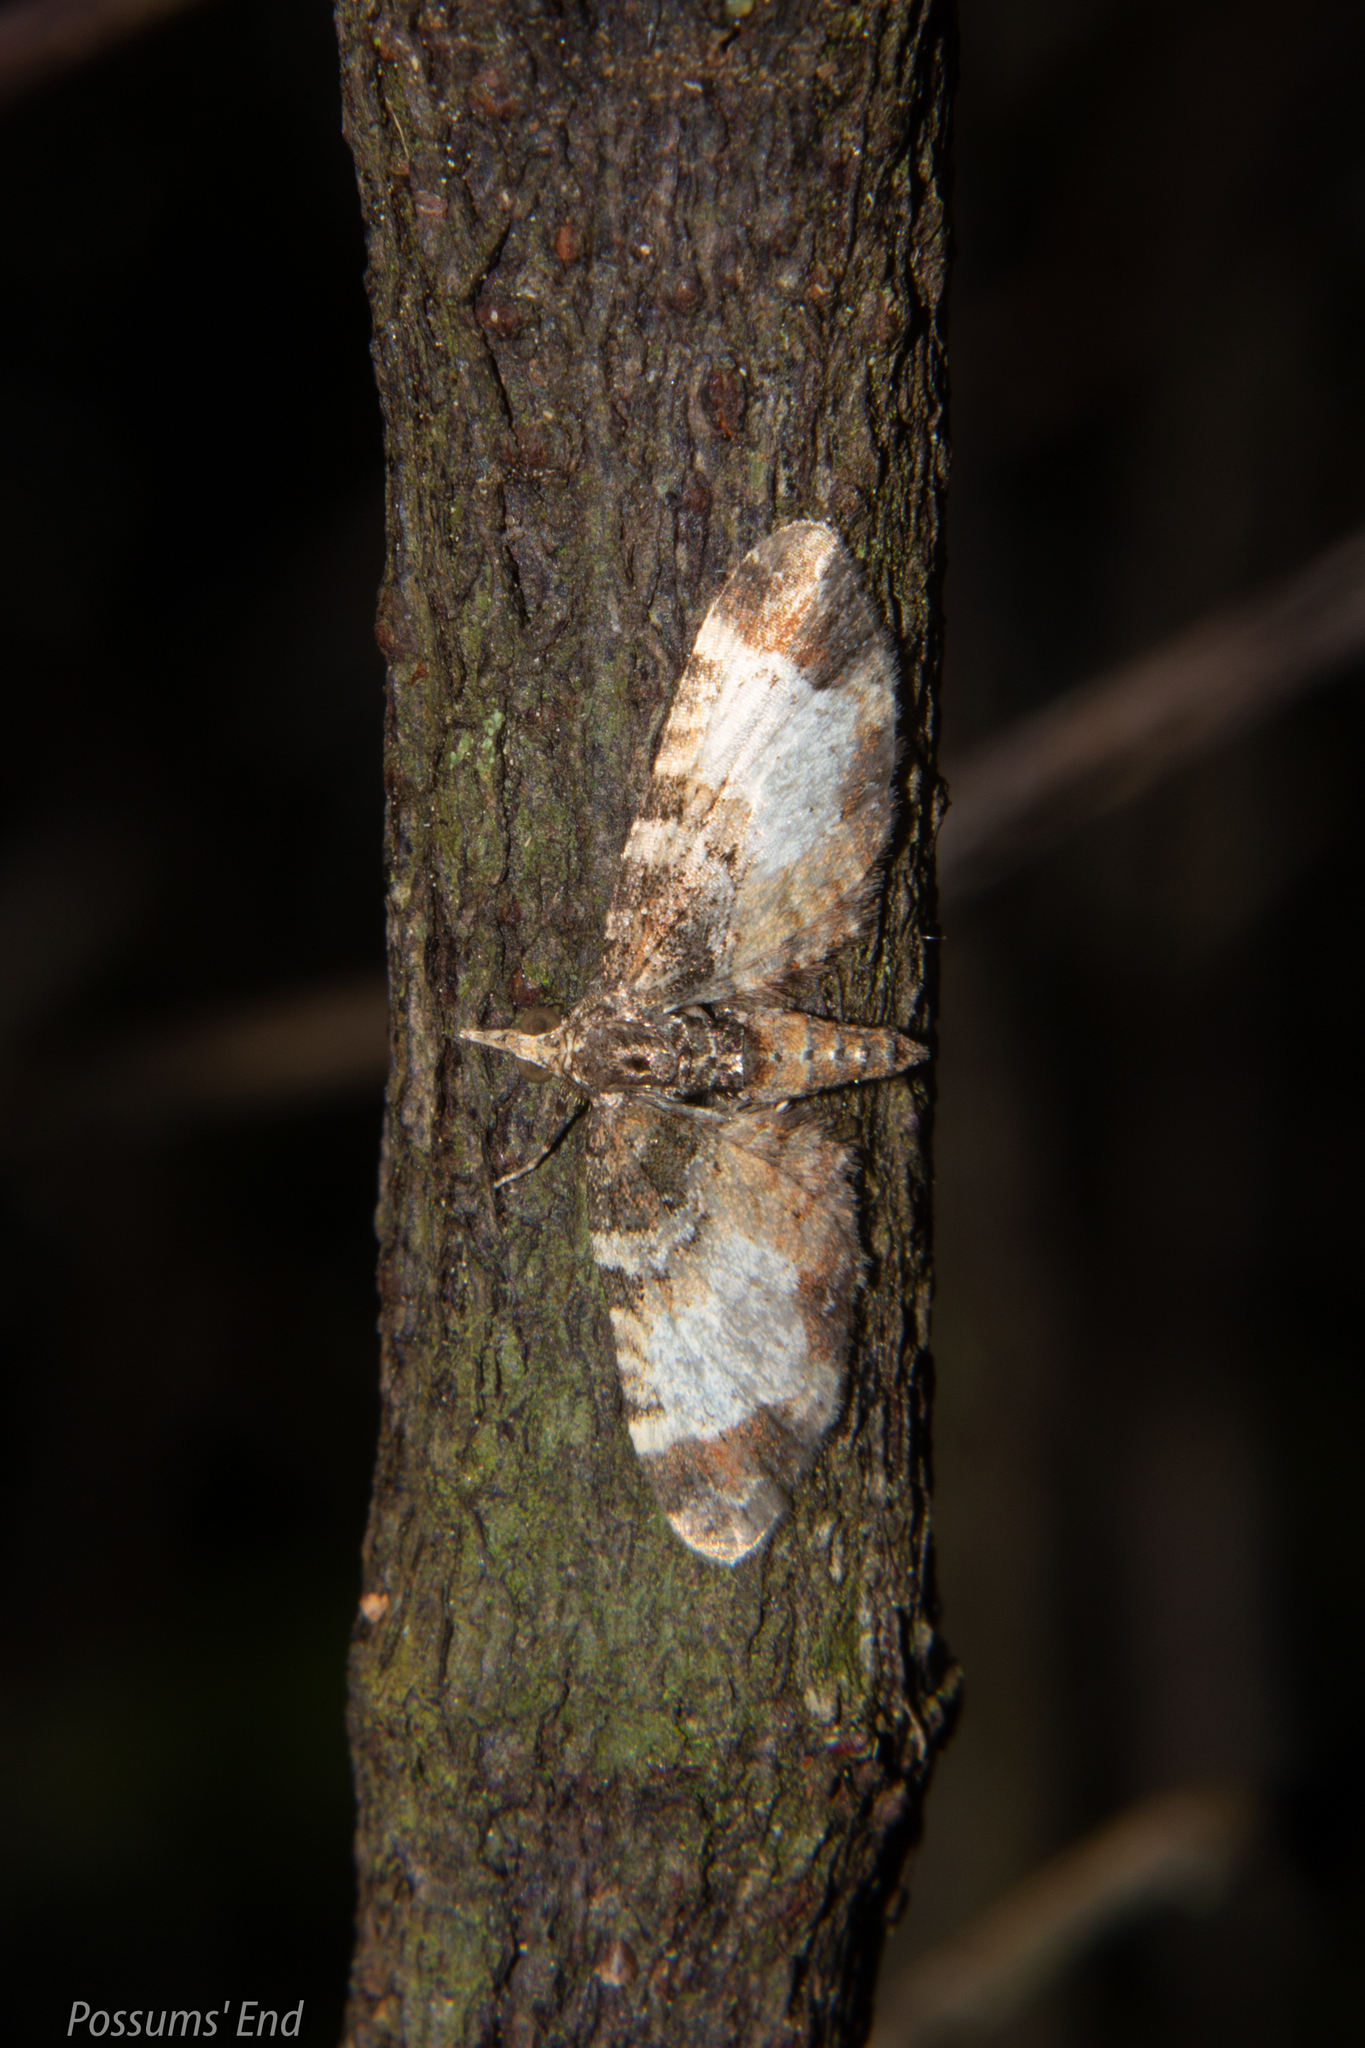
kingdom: Animalia
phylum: Arthropoda
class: Insecta
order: Lepidoptera
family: Geometridae
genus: Idaea
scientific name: Idaea mutanda
